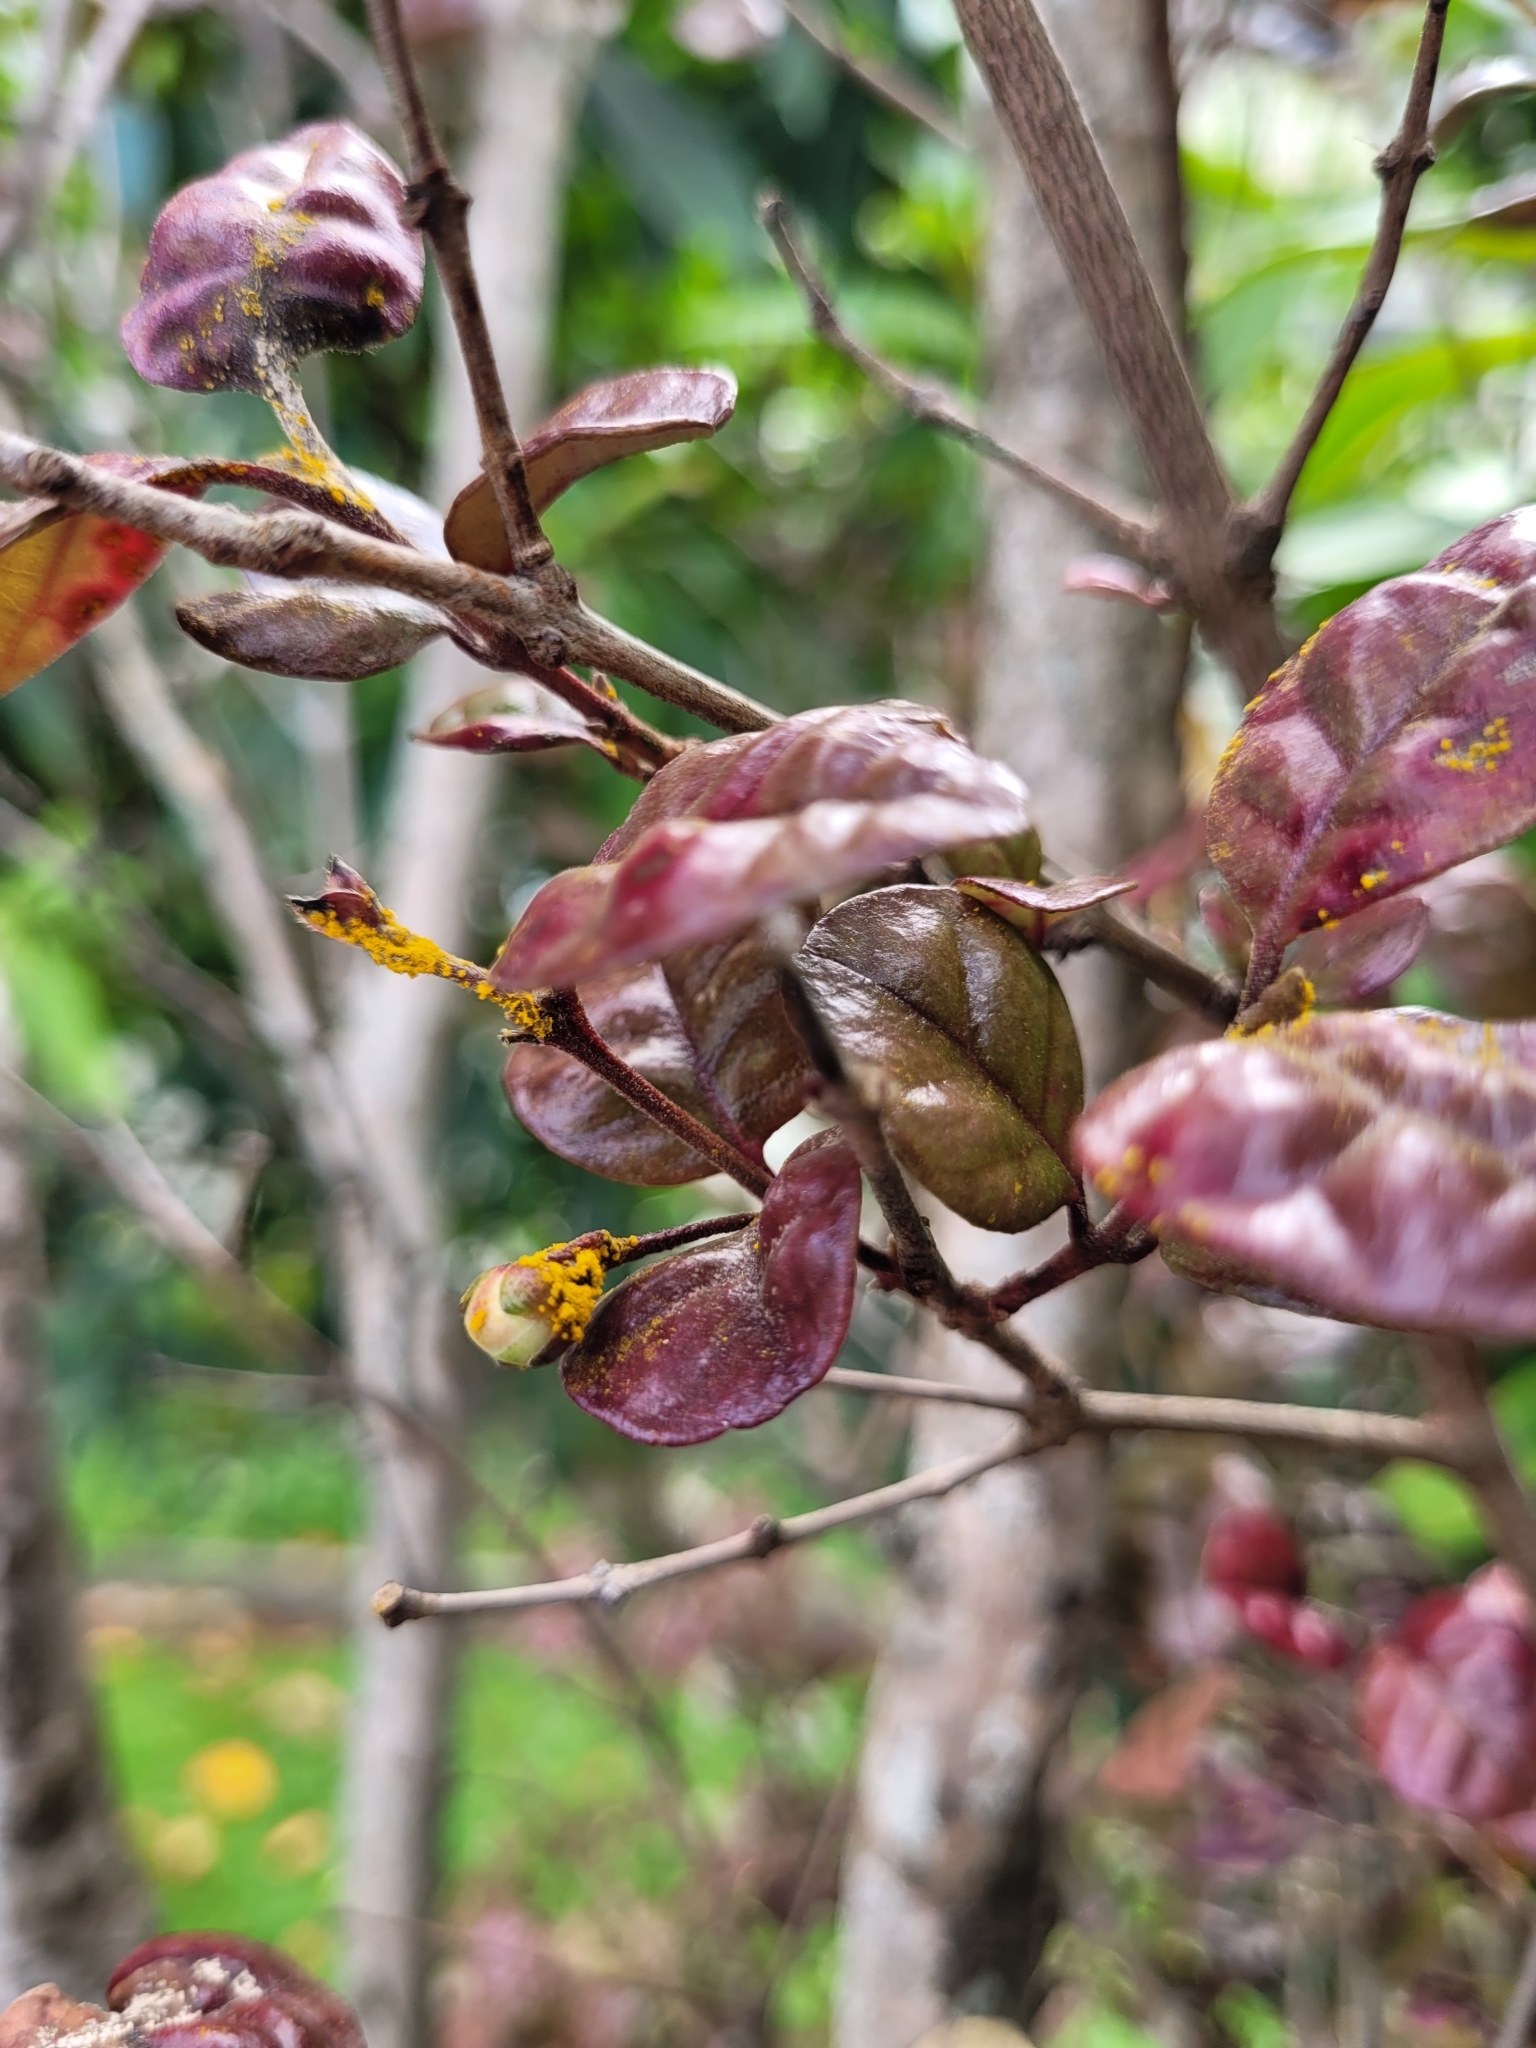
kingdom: Fungi
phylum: Basidiomycota
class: Pucciniomycetes
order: Pucciniales
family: Sphaerophragmiaceae
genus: Austropuccinia
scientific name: Austropuccinia psidii
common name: Myrtle rust
